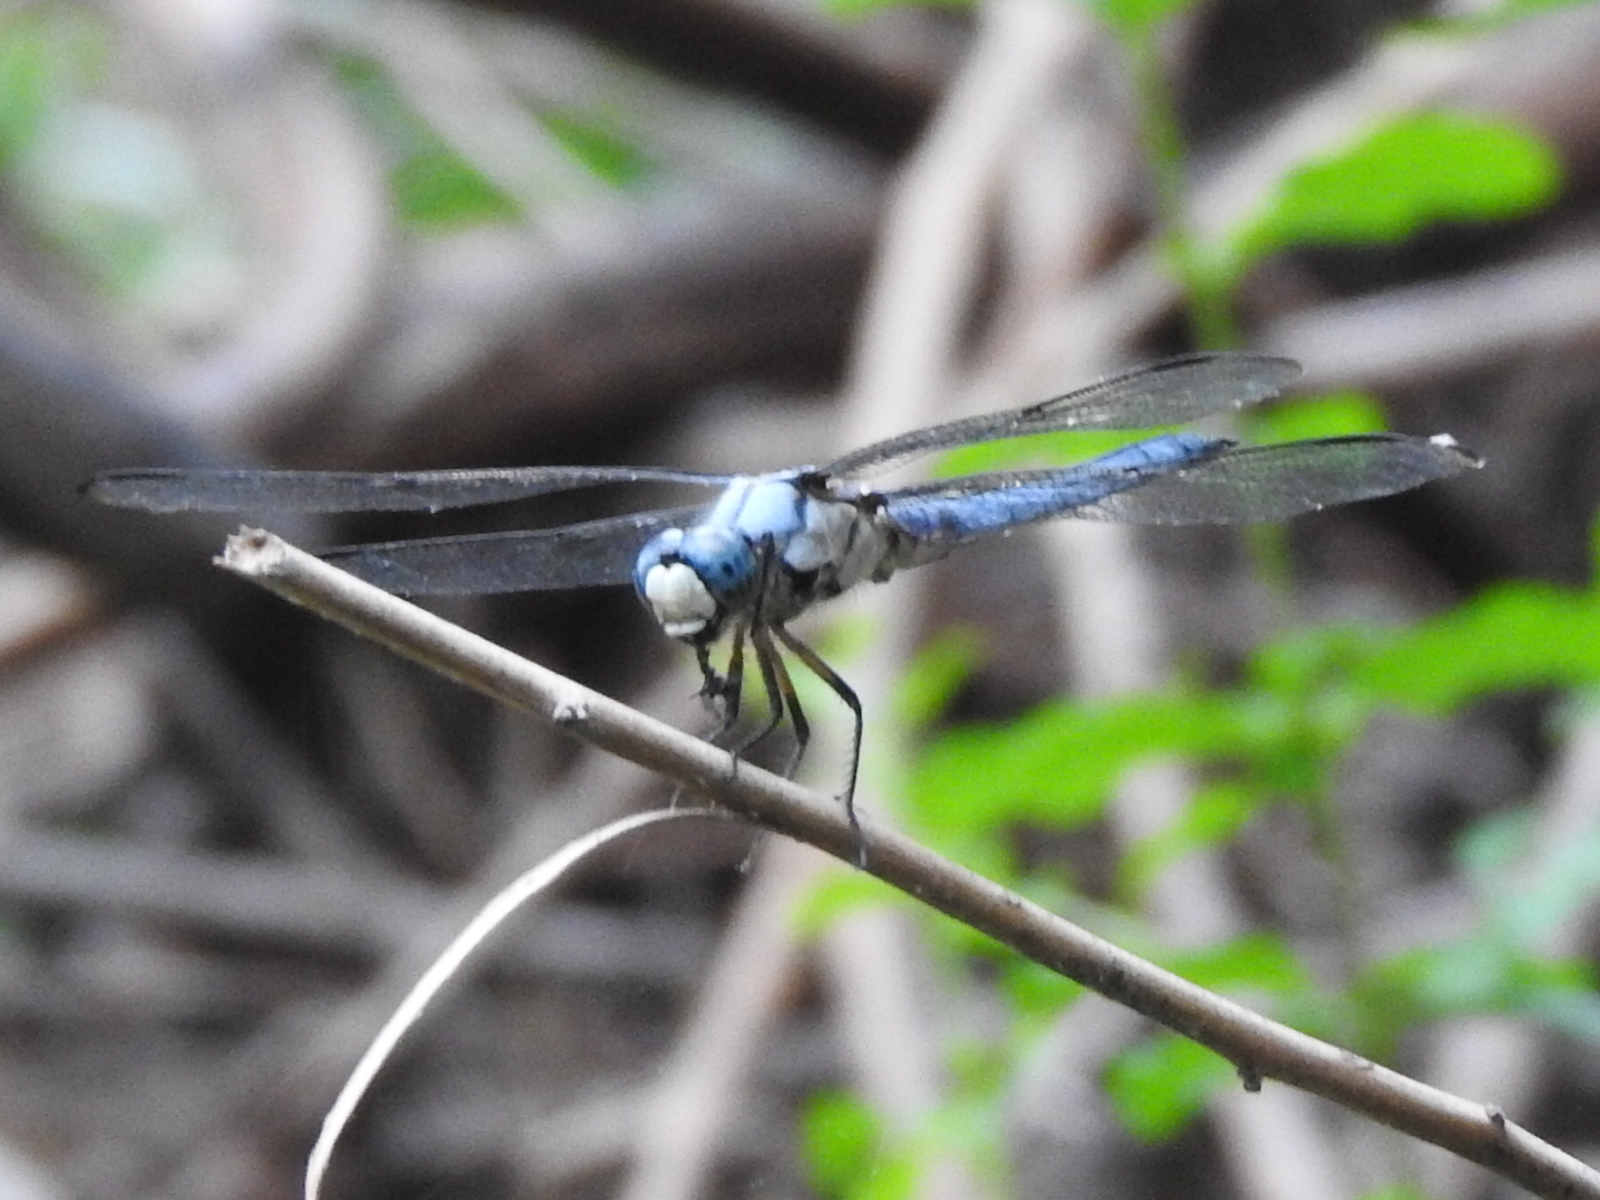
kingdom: Animalia
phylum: Arthropoda
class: Insecta
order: Odonata
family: Libellulidae
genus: Libellula
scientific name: Libellula vibrans
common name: Great blue skimmer
